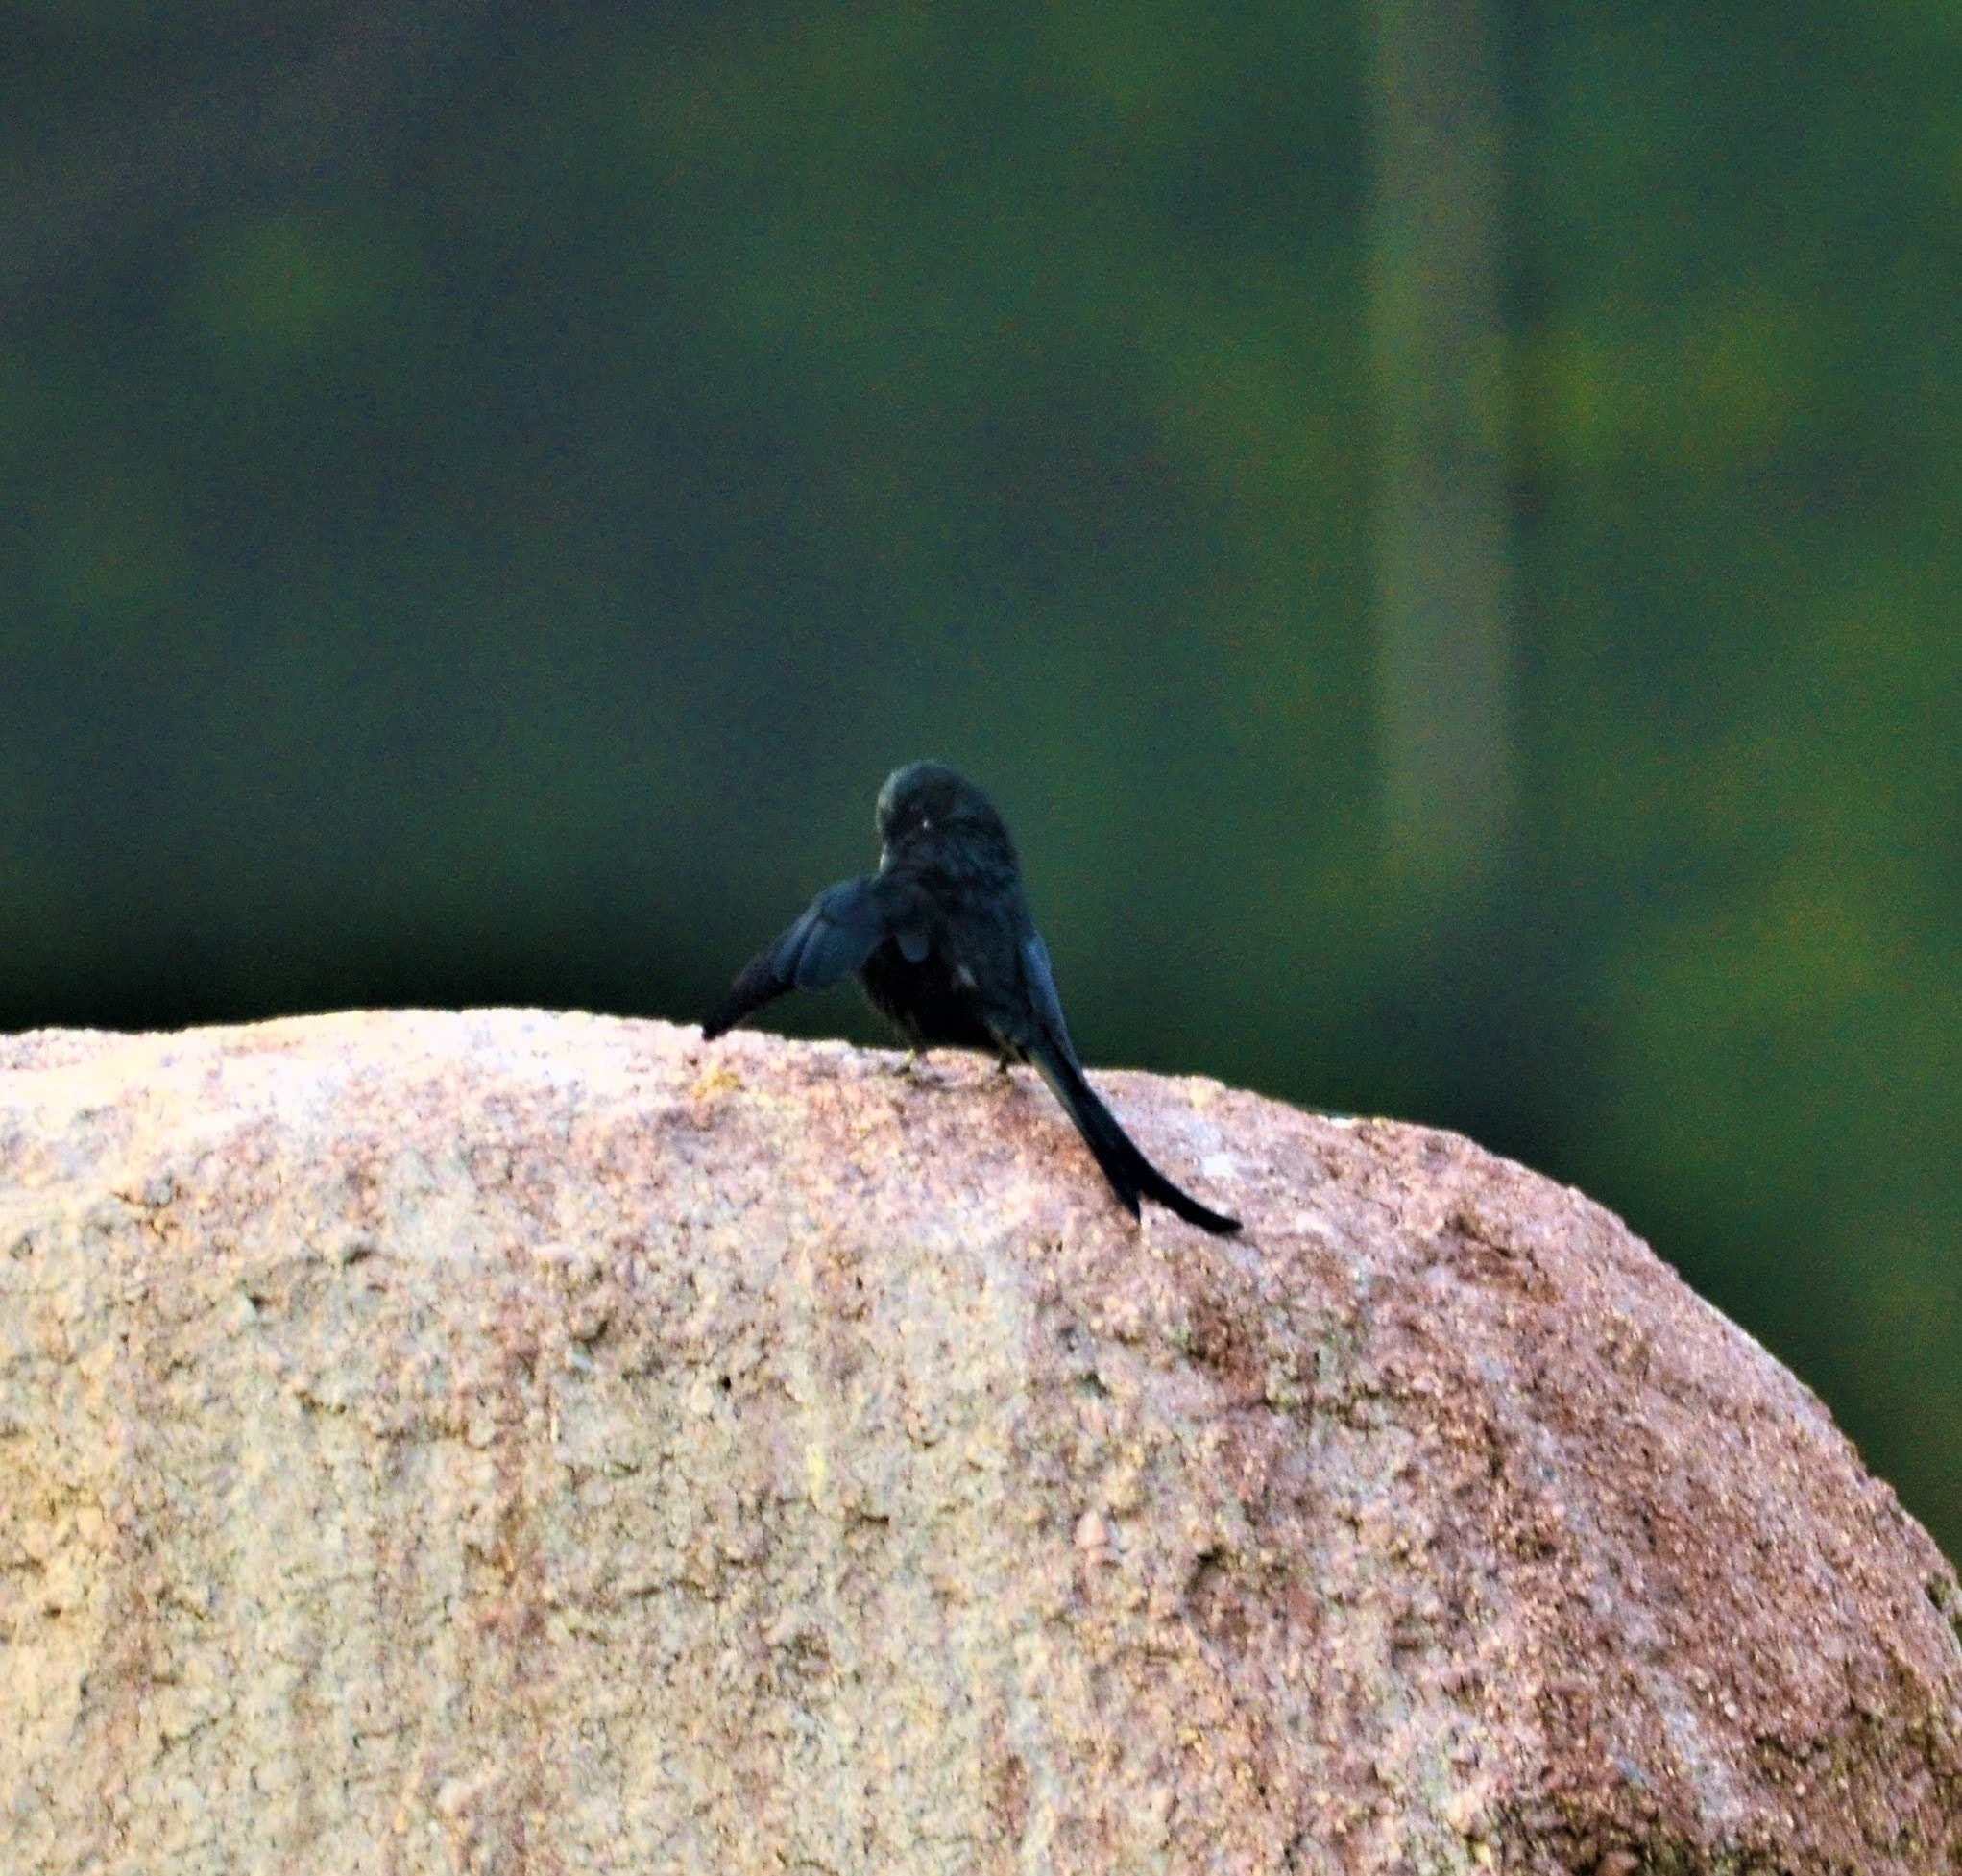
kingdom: Animalia
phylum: Chordata
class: Aves
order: Passeriformes
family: Dicruridae
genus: Dicrurus
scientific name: Dicrurus macrocercus
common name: Black drongo
